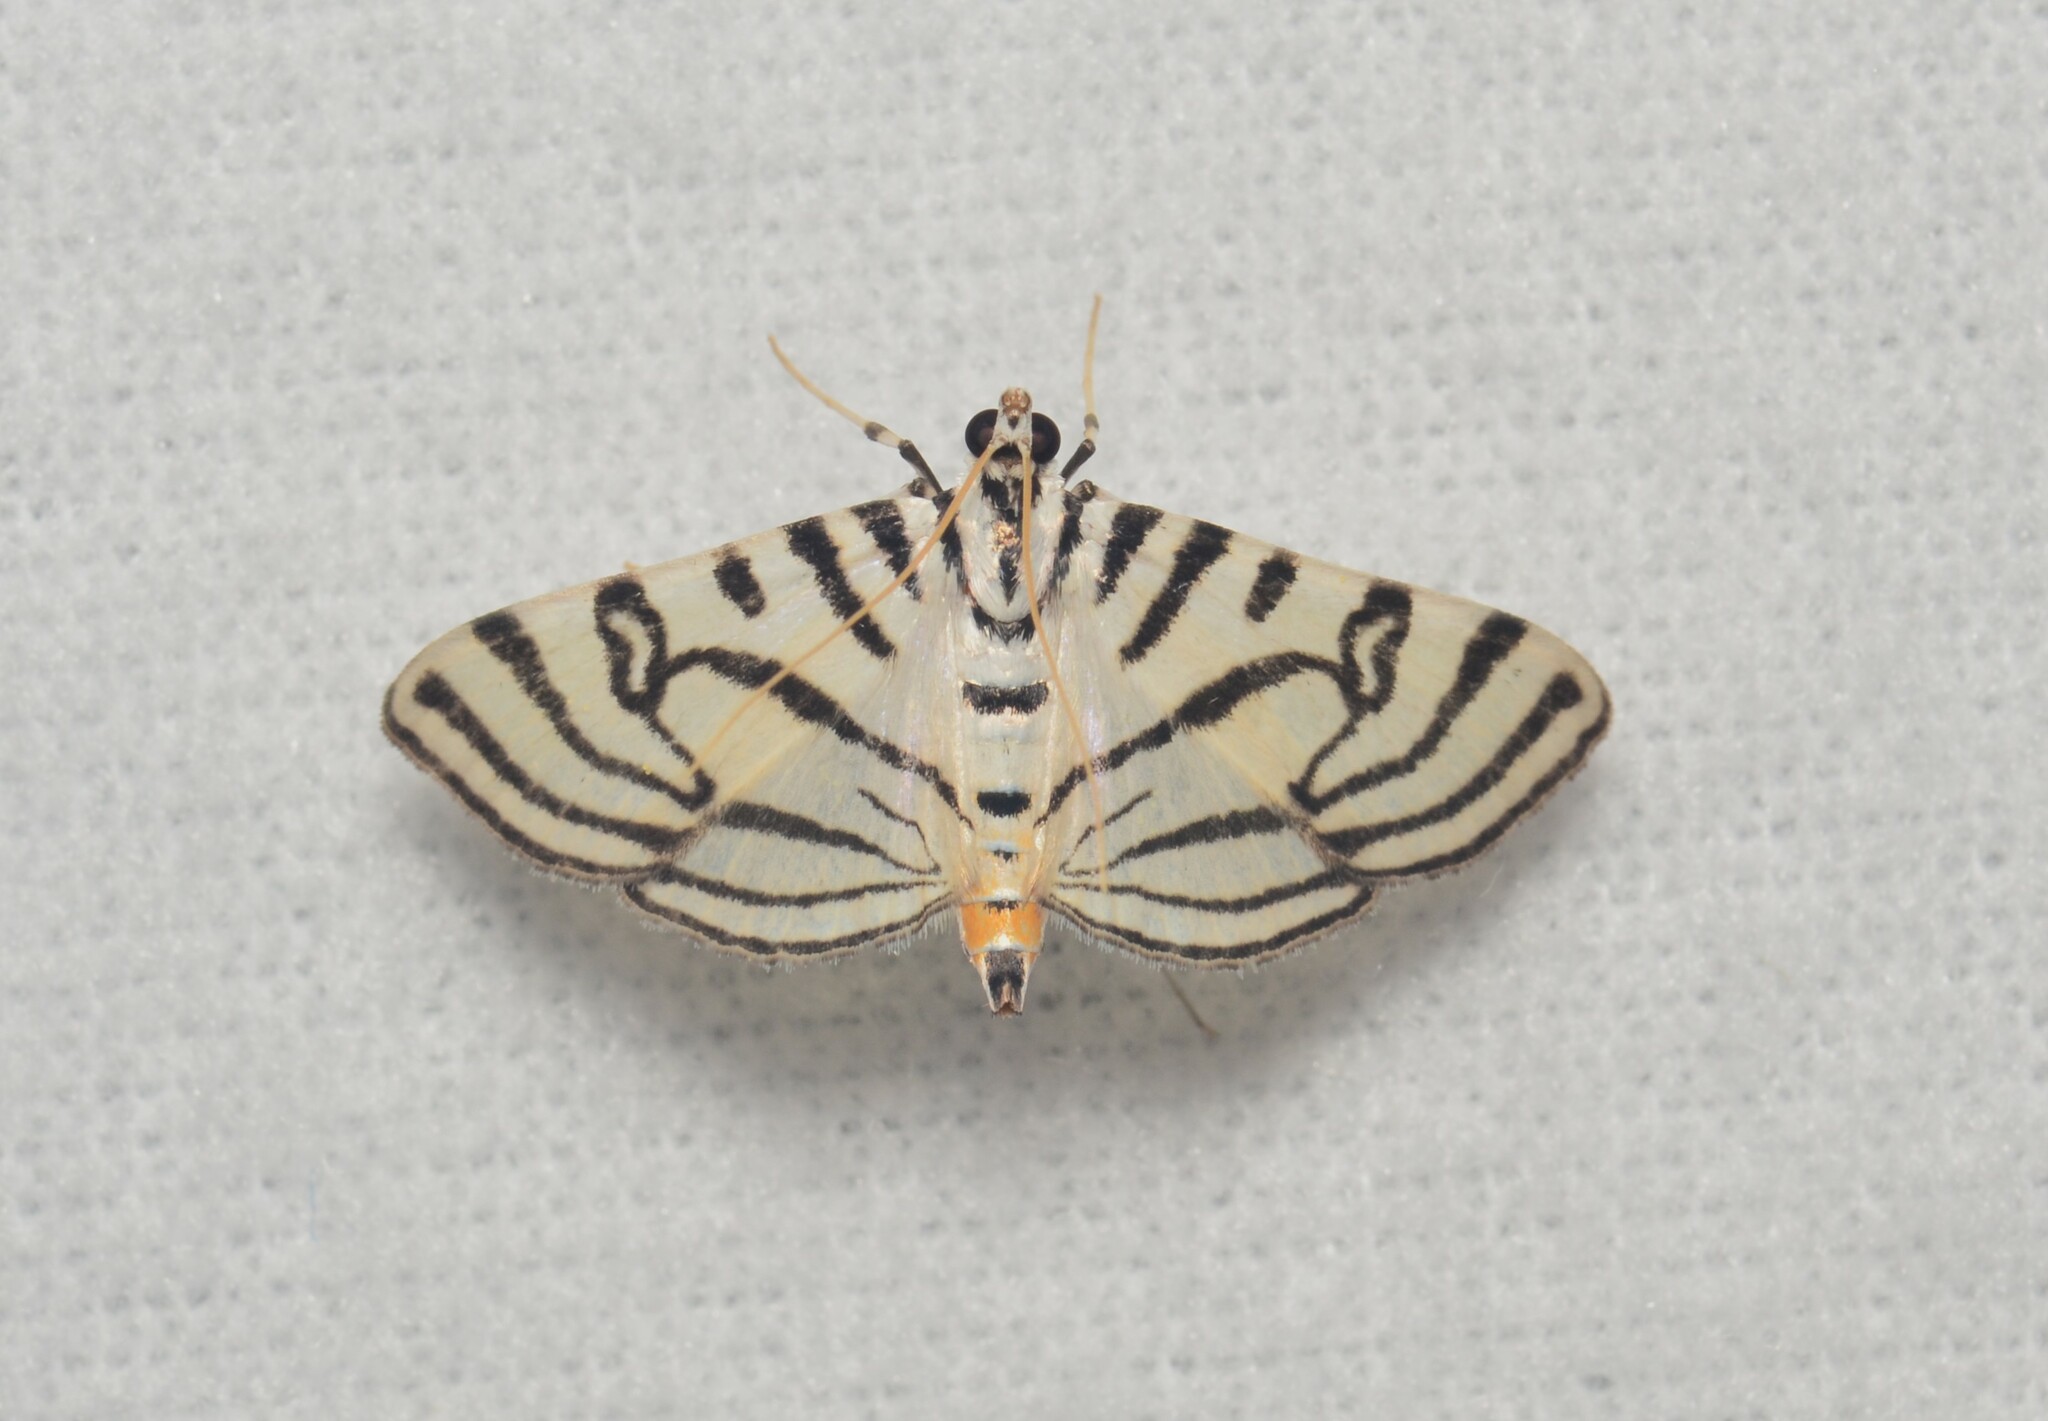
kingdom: Animalia
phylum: Arthropoda
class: Insecta
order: Lepidoptera
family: Crambidae
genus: Conchylodes
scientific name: Conchylodes ovulalis
